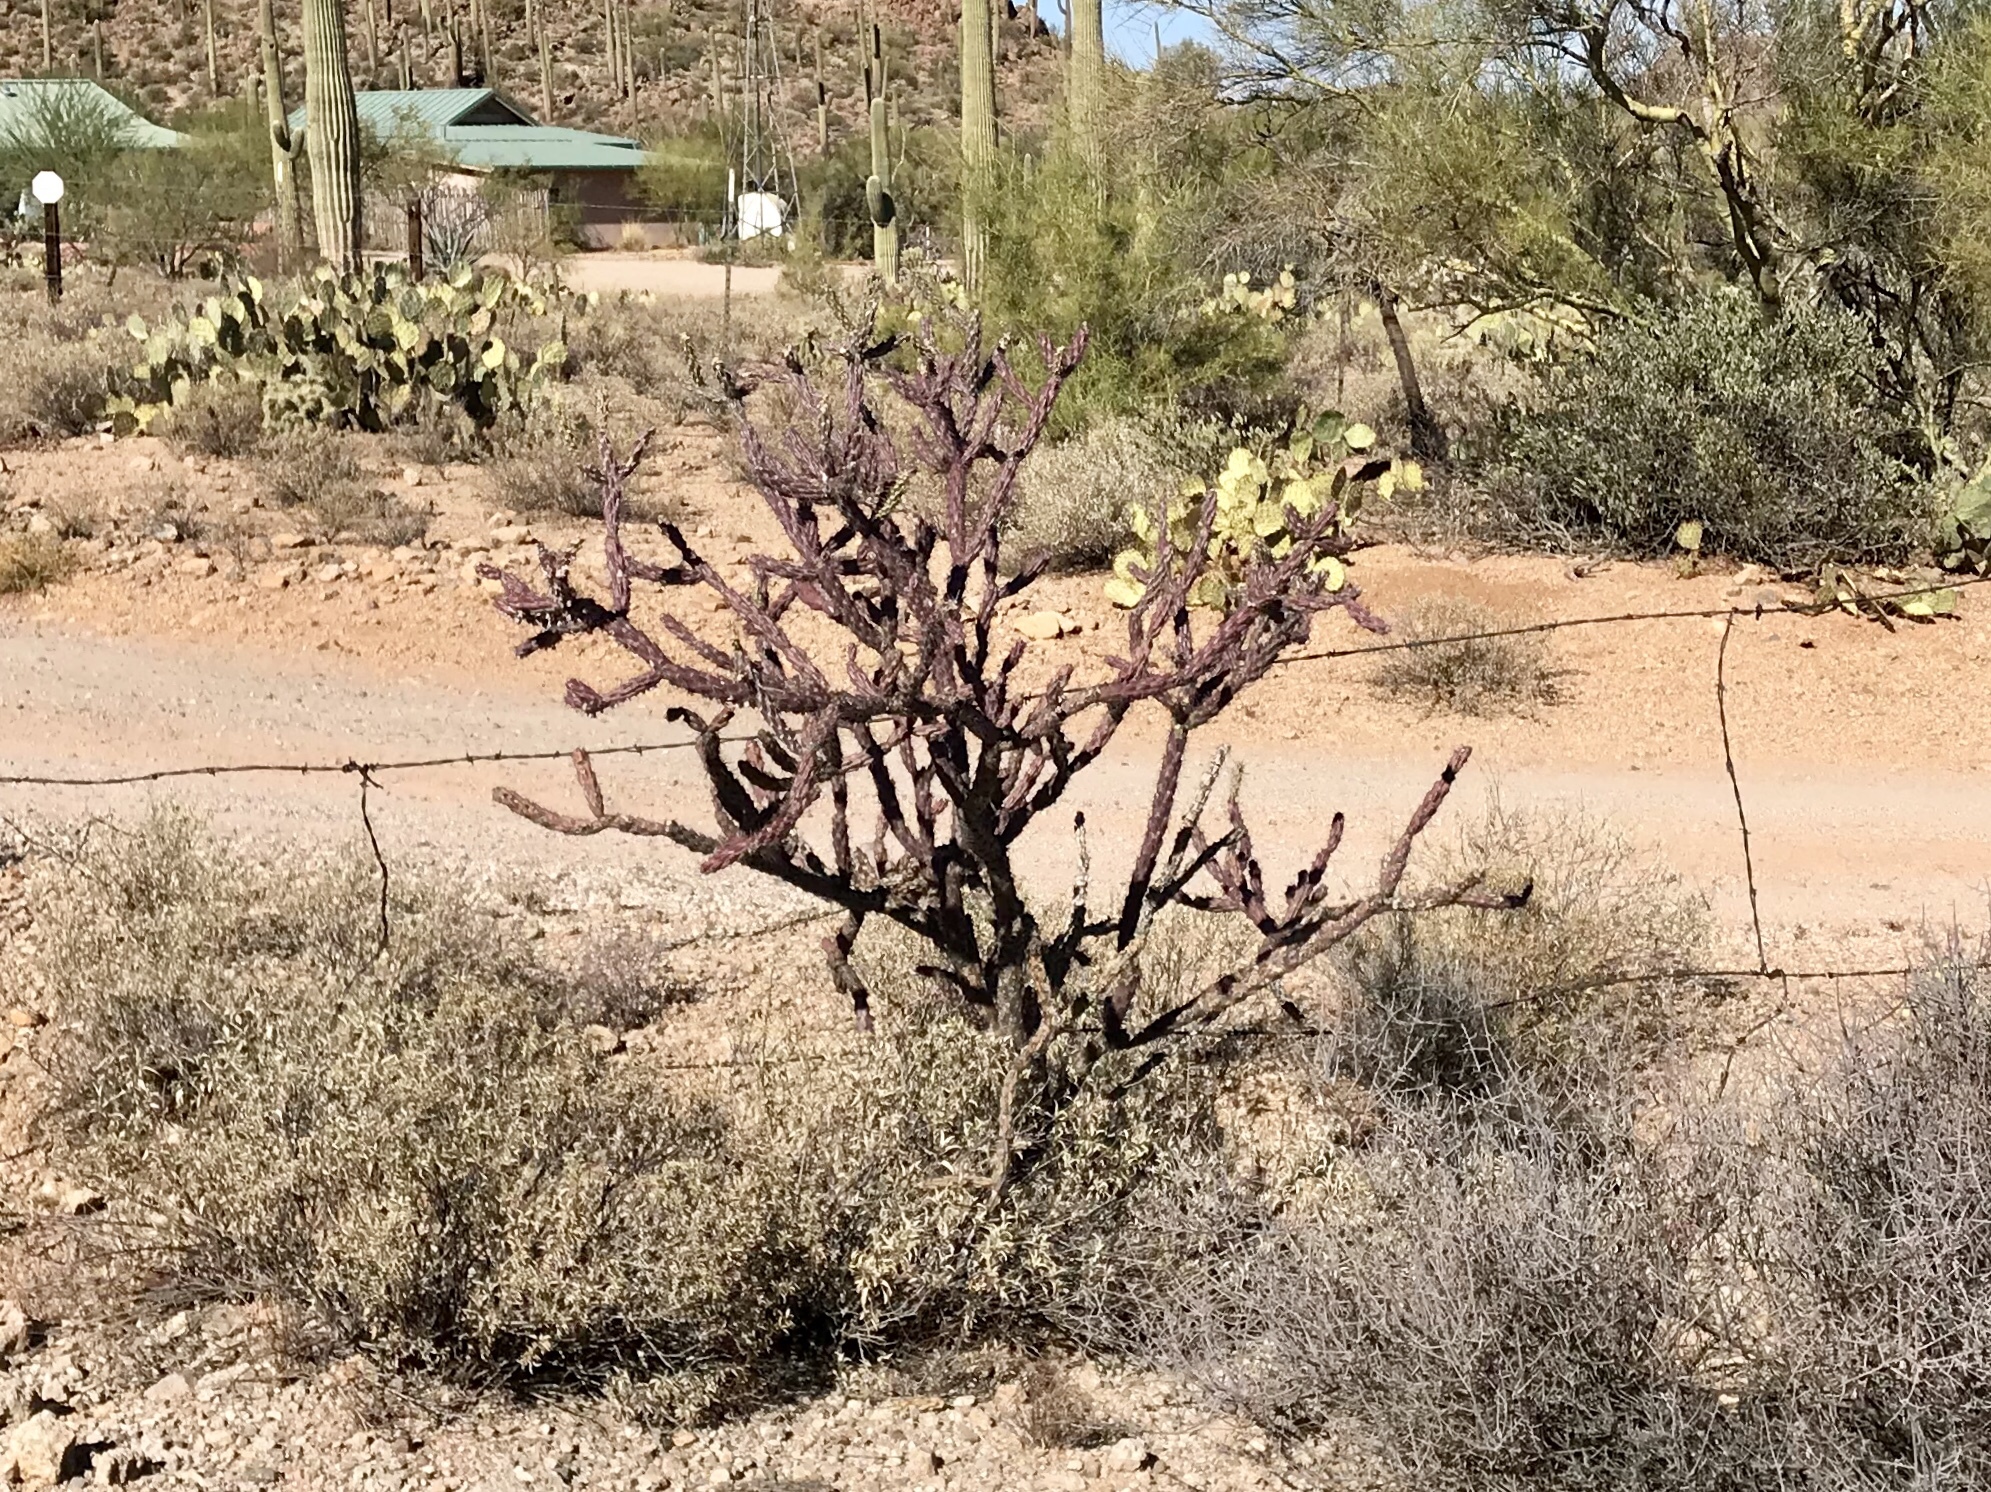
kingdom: Plantae
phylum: Tracheophyta
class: Magnoliopsida
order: Caryophyllales
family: Cactaceae
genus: Cylindropuntia
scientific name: Cylindropuntia thurberi
